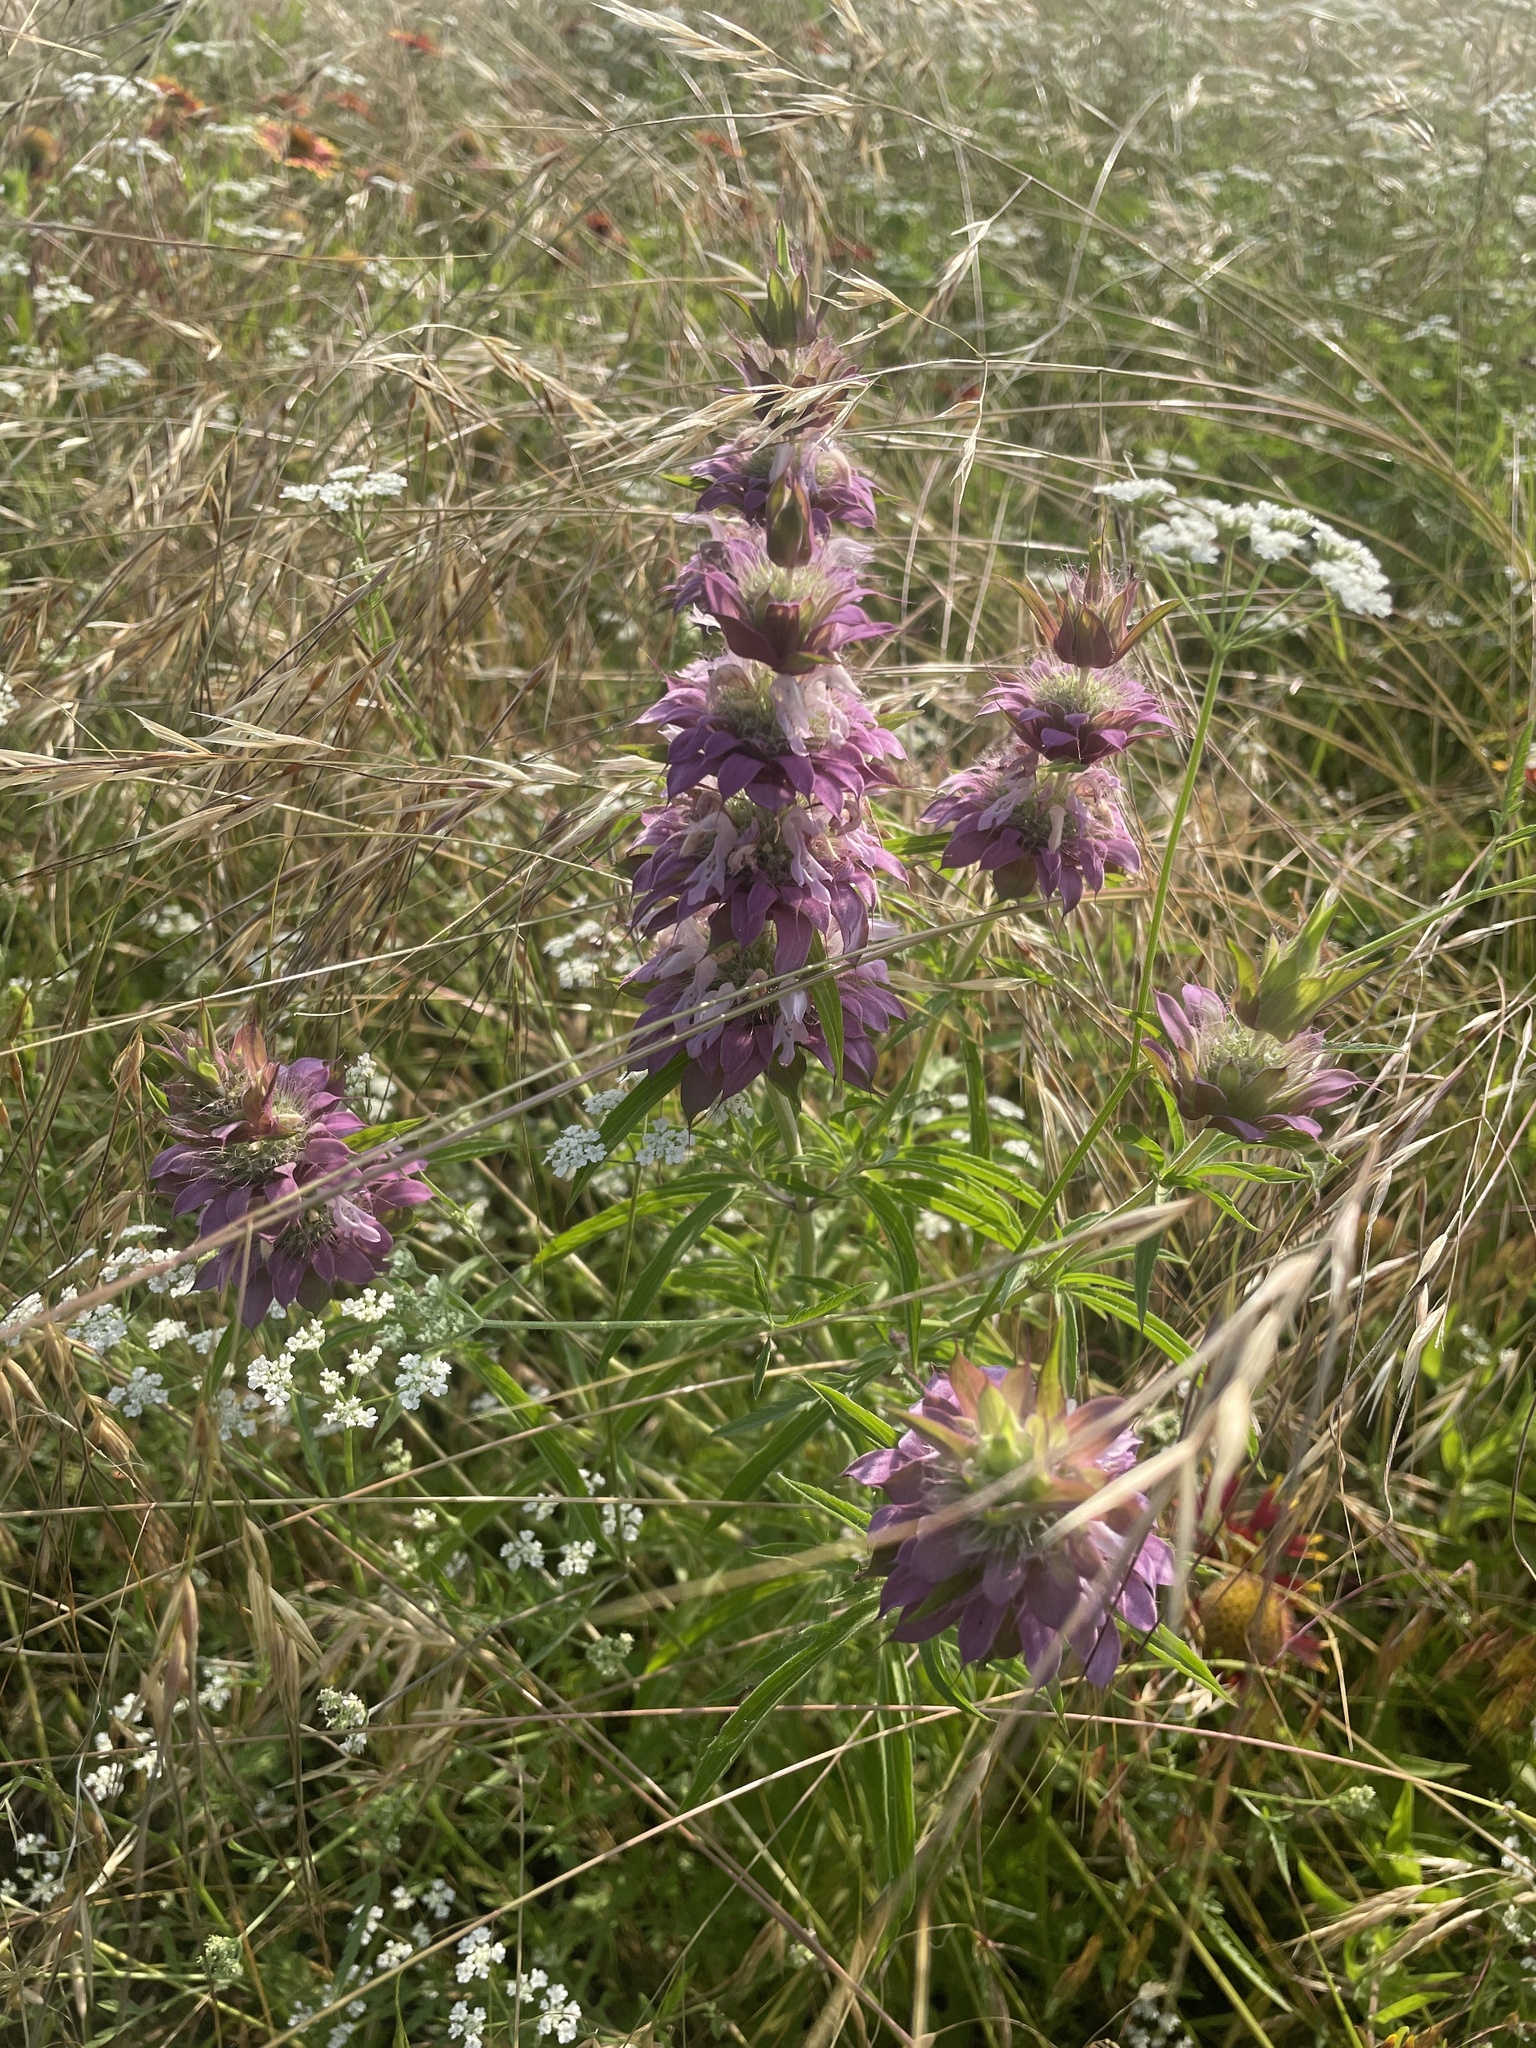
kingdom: Plantae
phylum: Tracheophyta
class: Magnoliopsida
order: Lamiales
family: Lamiaceae
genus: Monarda
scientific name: Monarda citriodora
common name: Lemon beebalm
